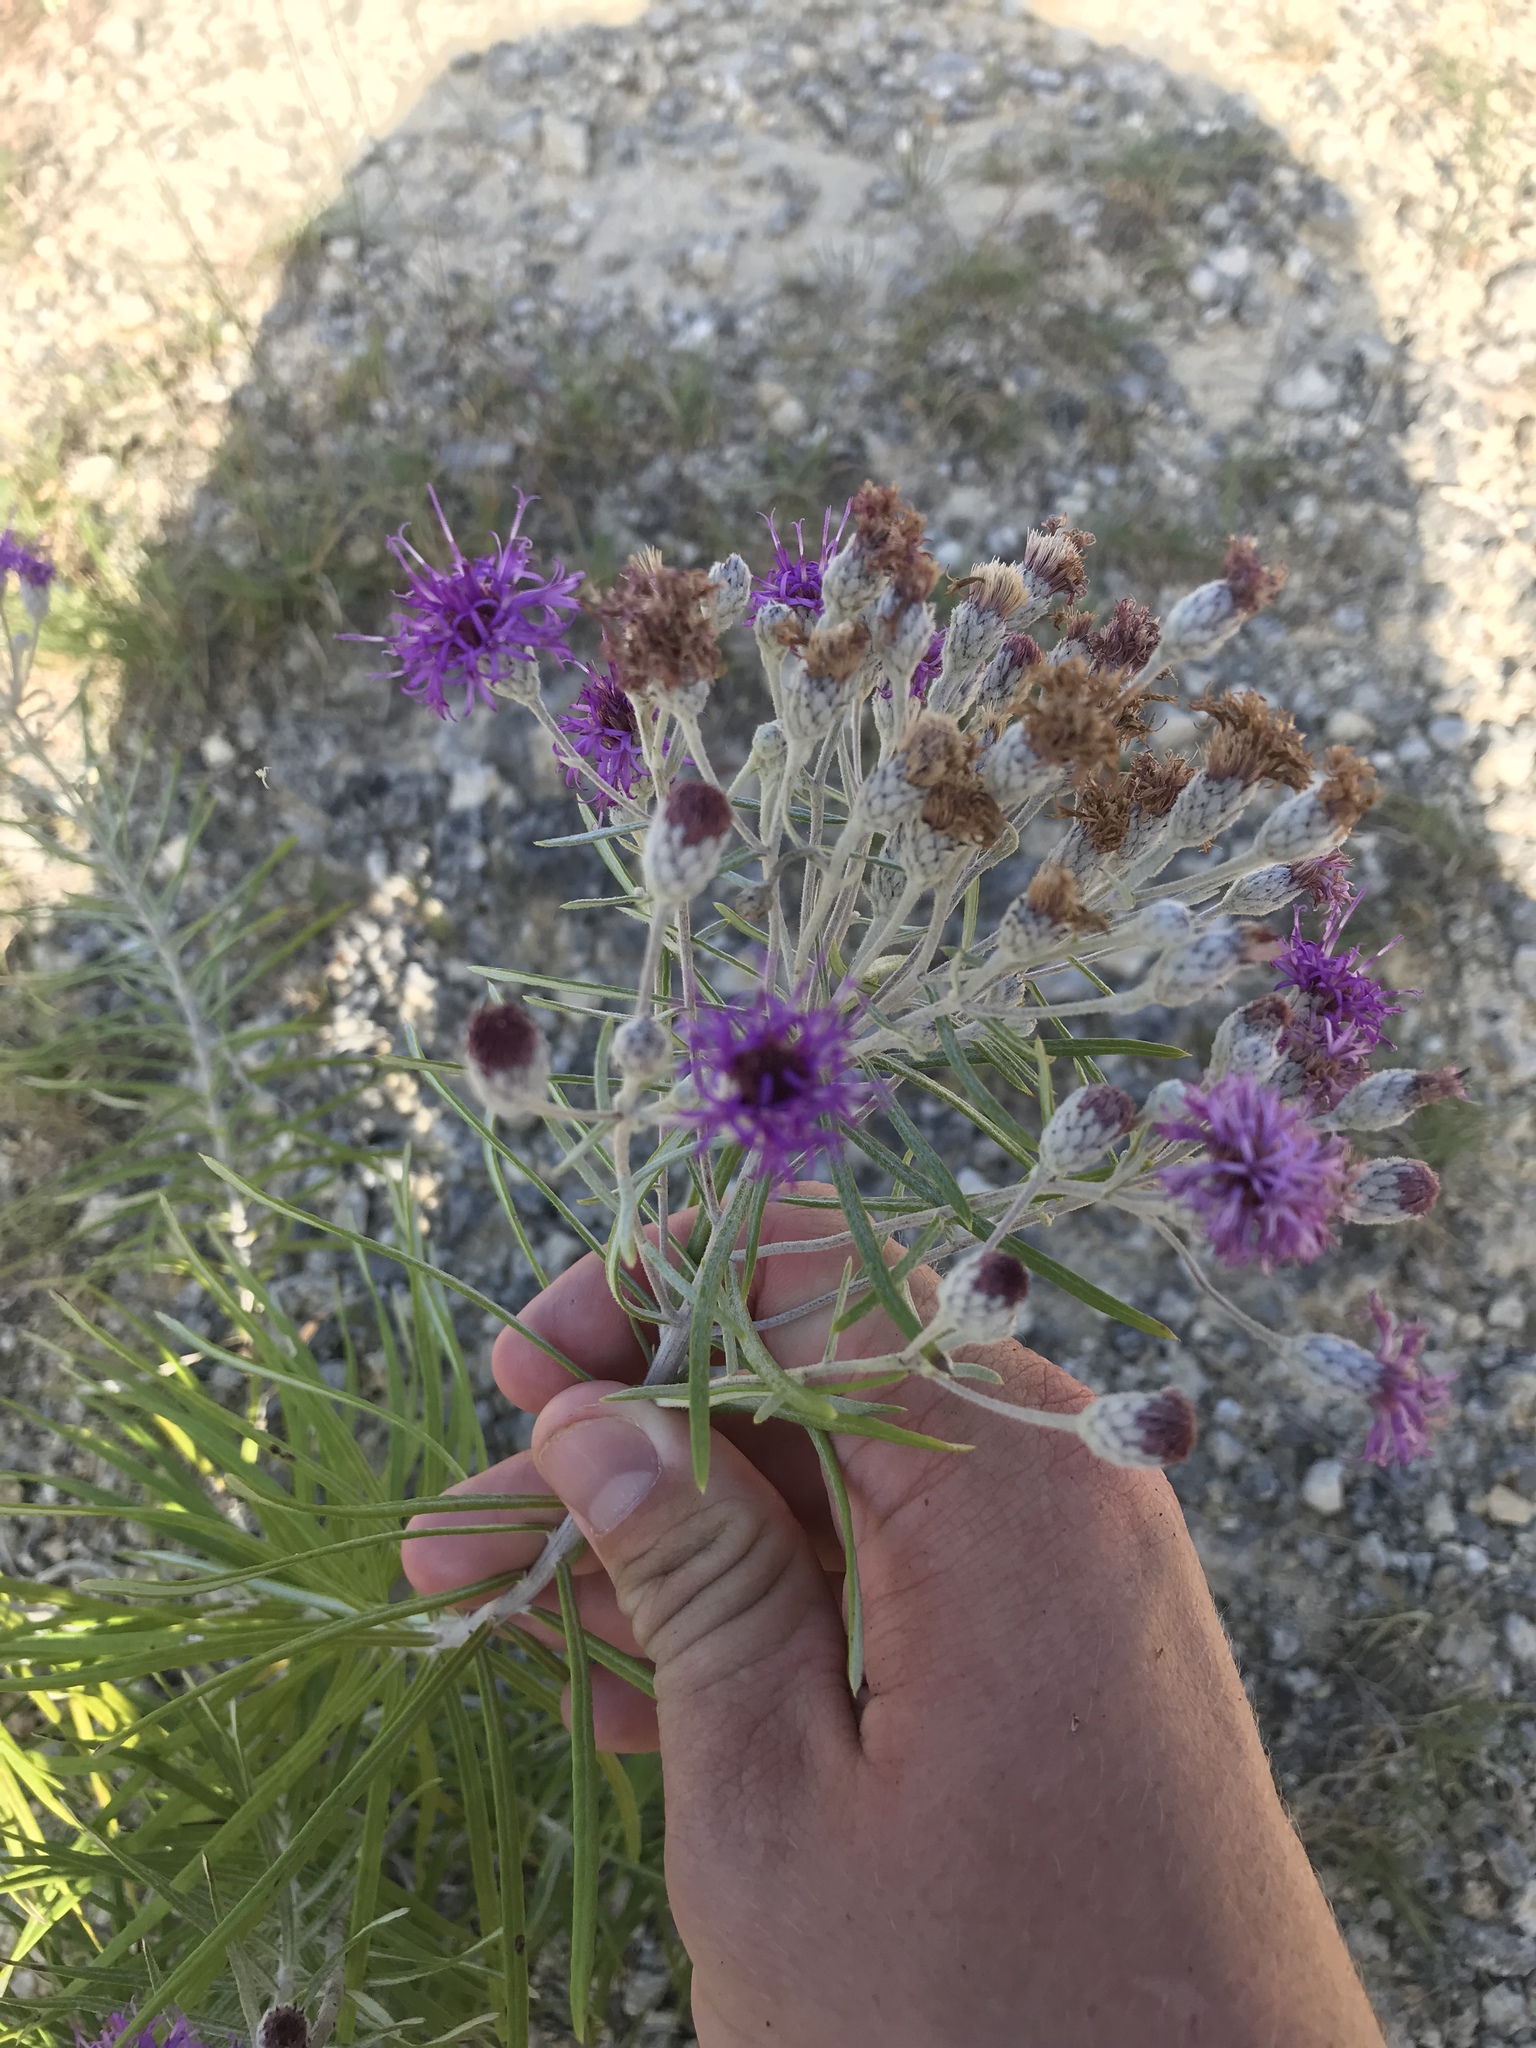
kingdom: Plantae
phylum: Tracheophyta
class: Magnoliopsida
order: Asterales
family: Asteraceae
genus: Vernonia
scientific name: Vernonia lindheimeri
